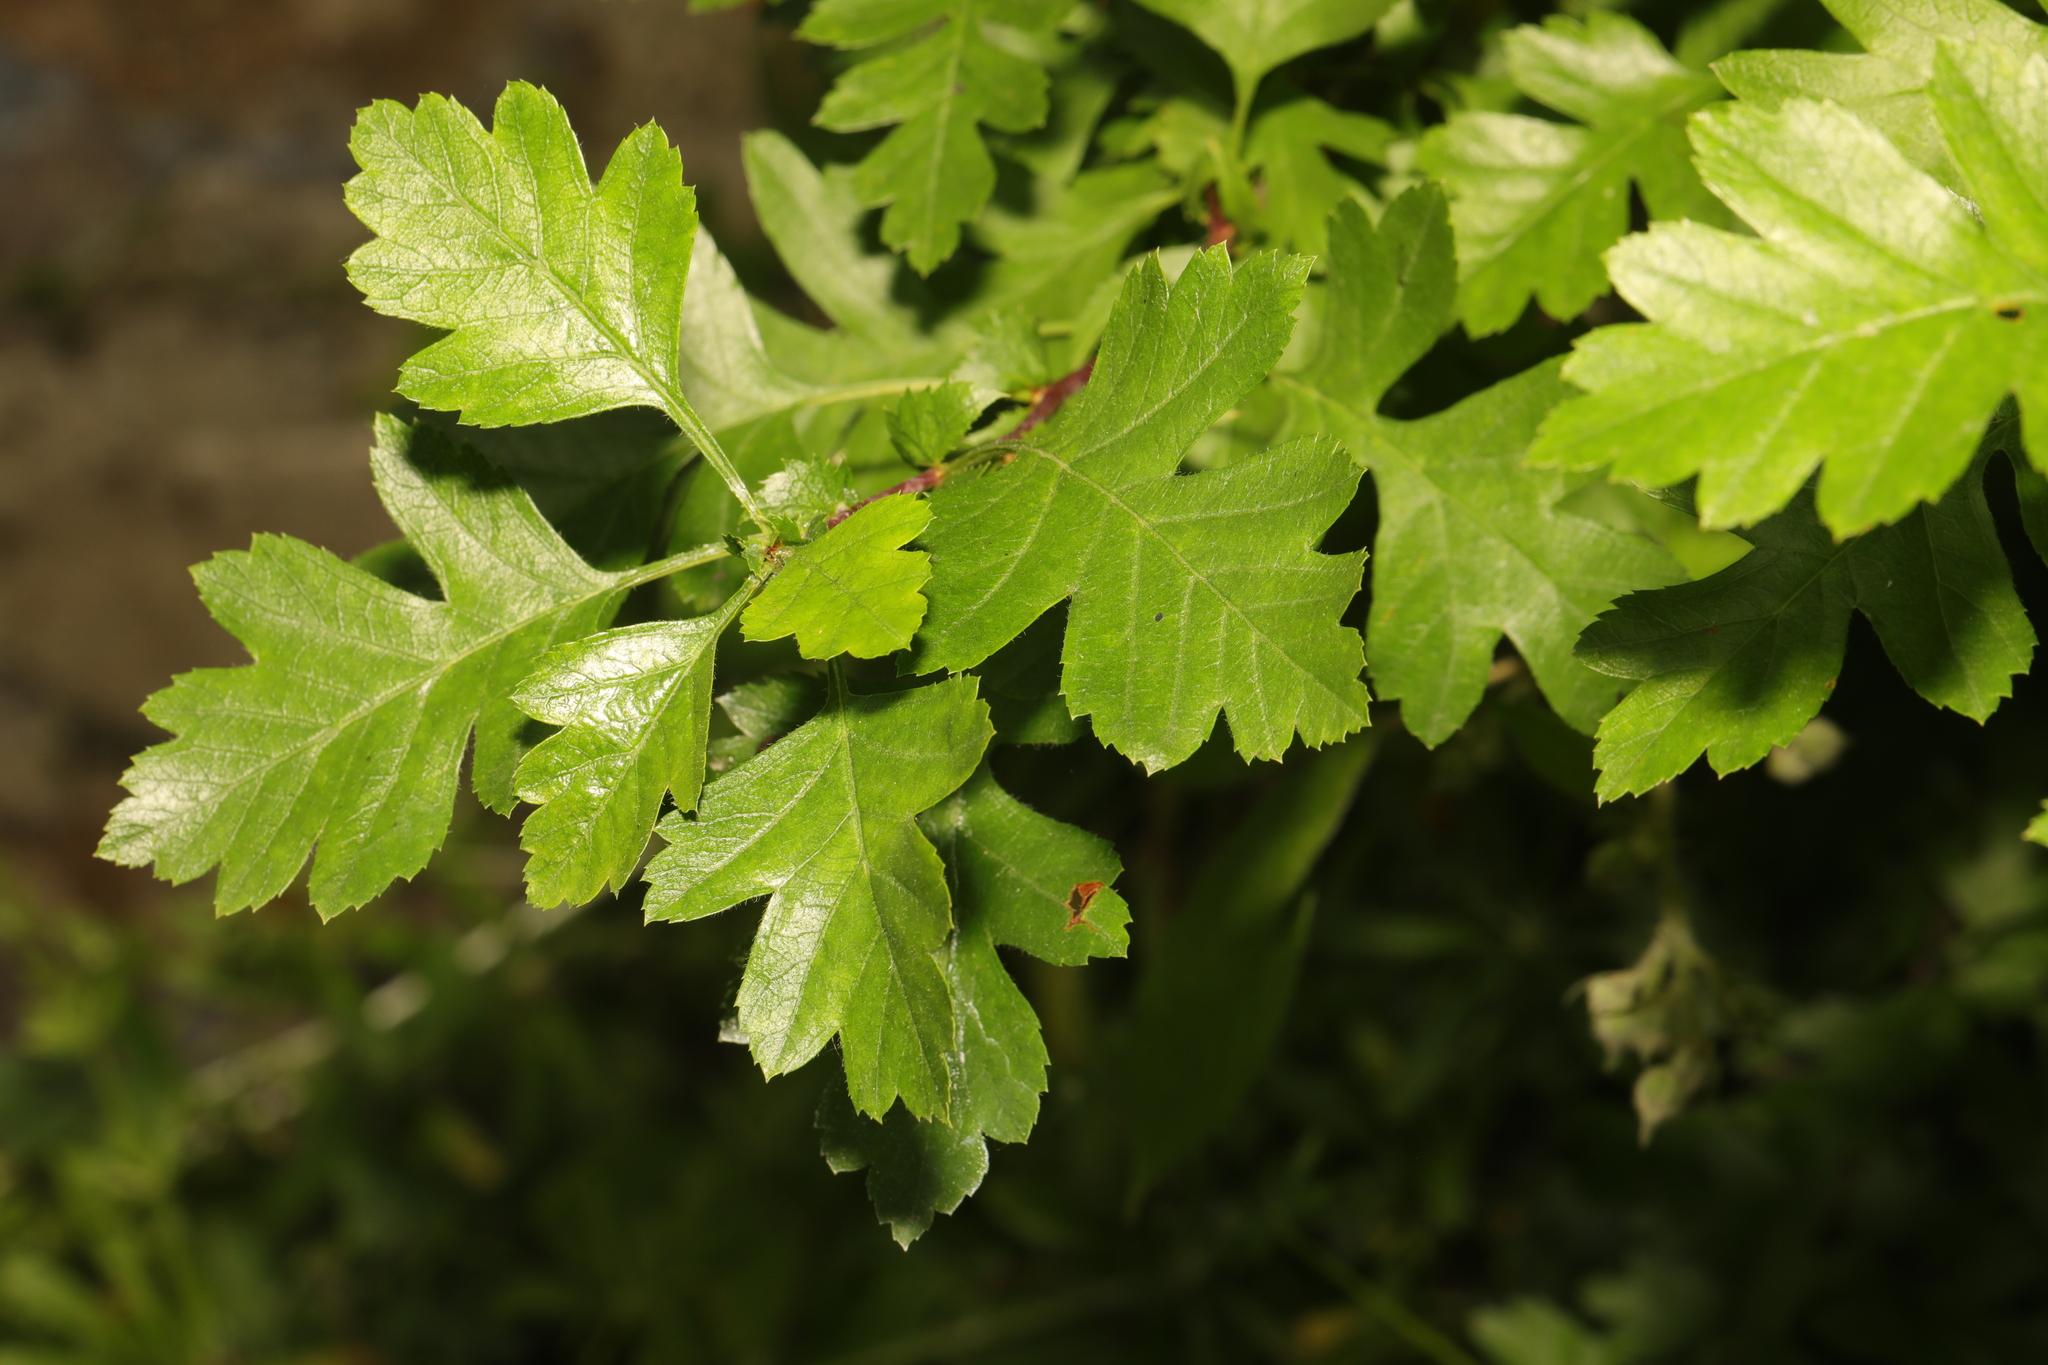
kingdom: Plantae
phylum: Tracheophyta
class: Magnoliopsida
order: Rosales
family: Rosaceae
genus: Crataegus
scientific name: Crataegus monogyna
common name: Hawthorn
